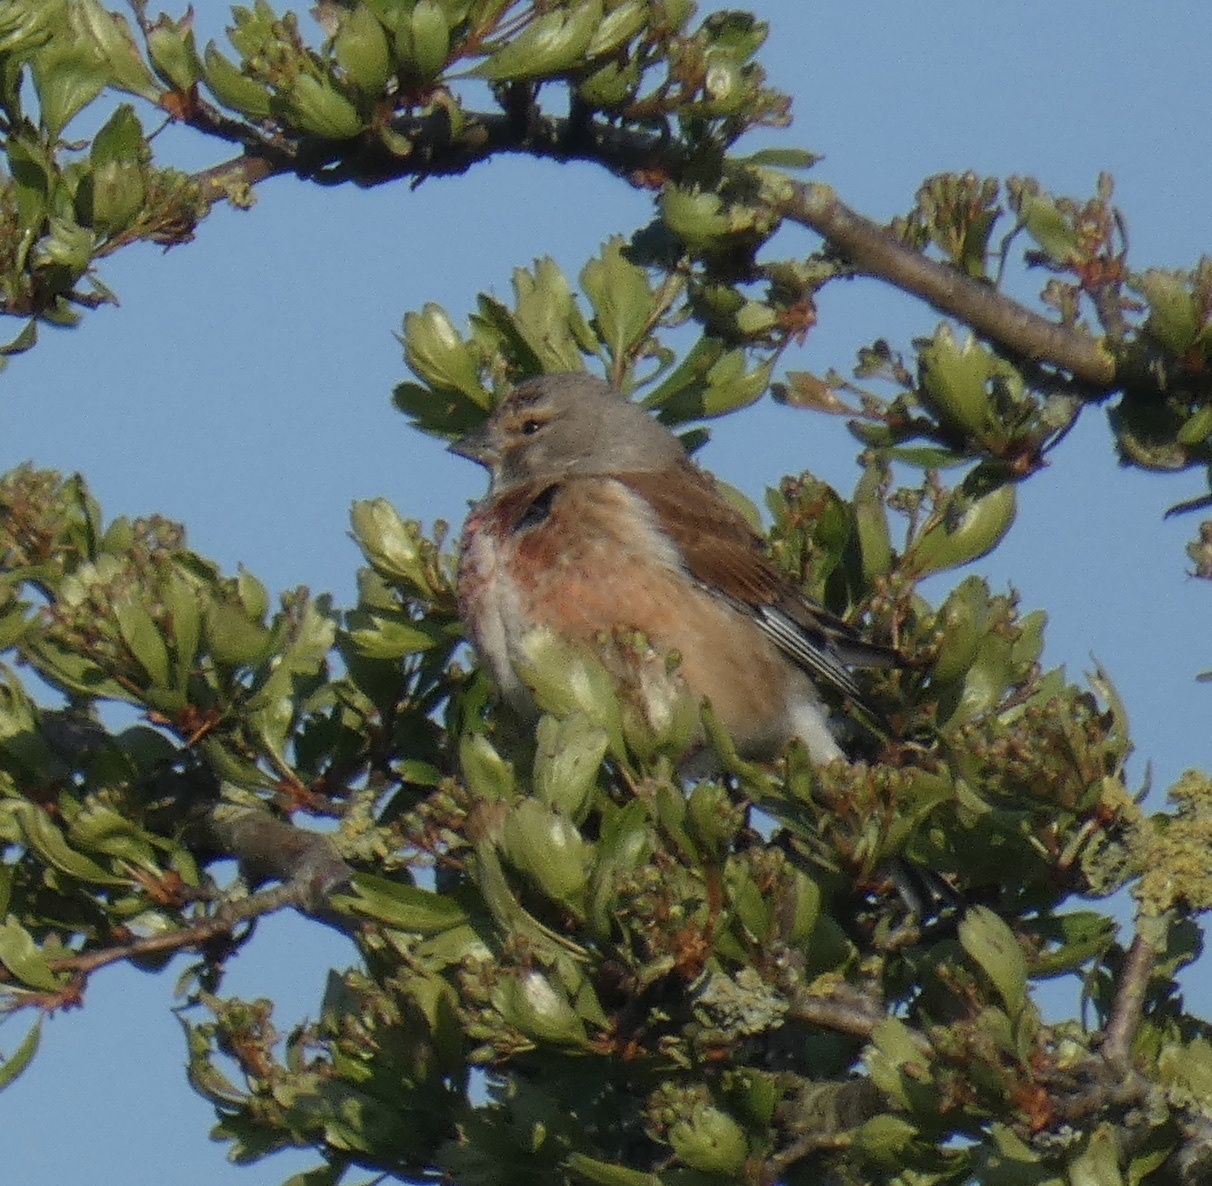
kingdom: Animalia
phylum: Chordata
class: Aves
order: Passeriformes
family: Fringillidae
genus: Linaria
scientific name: Linaria cannabina
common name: Common linnet
